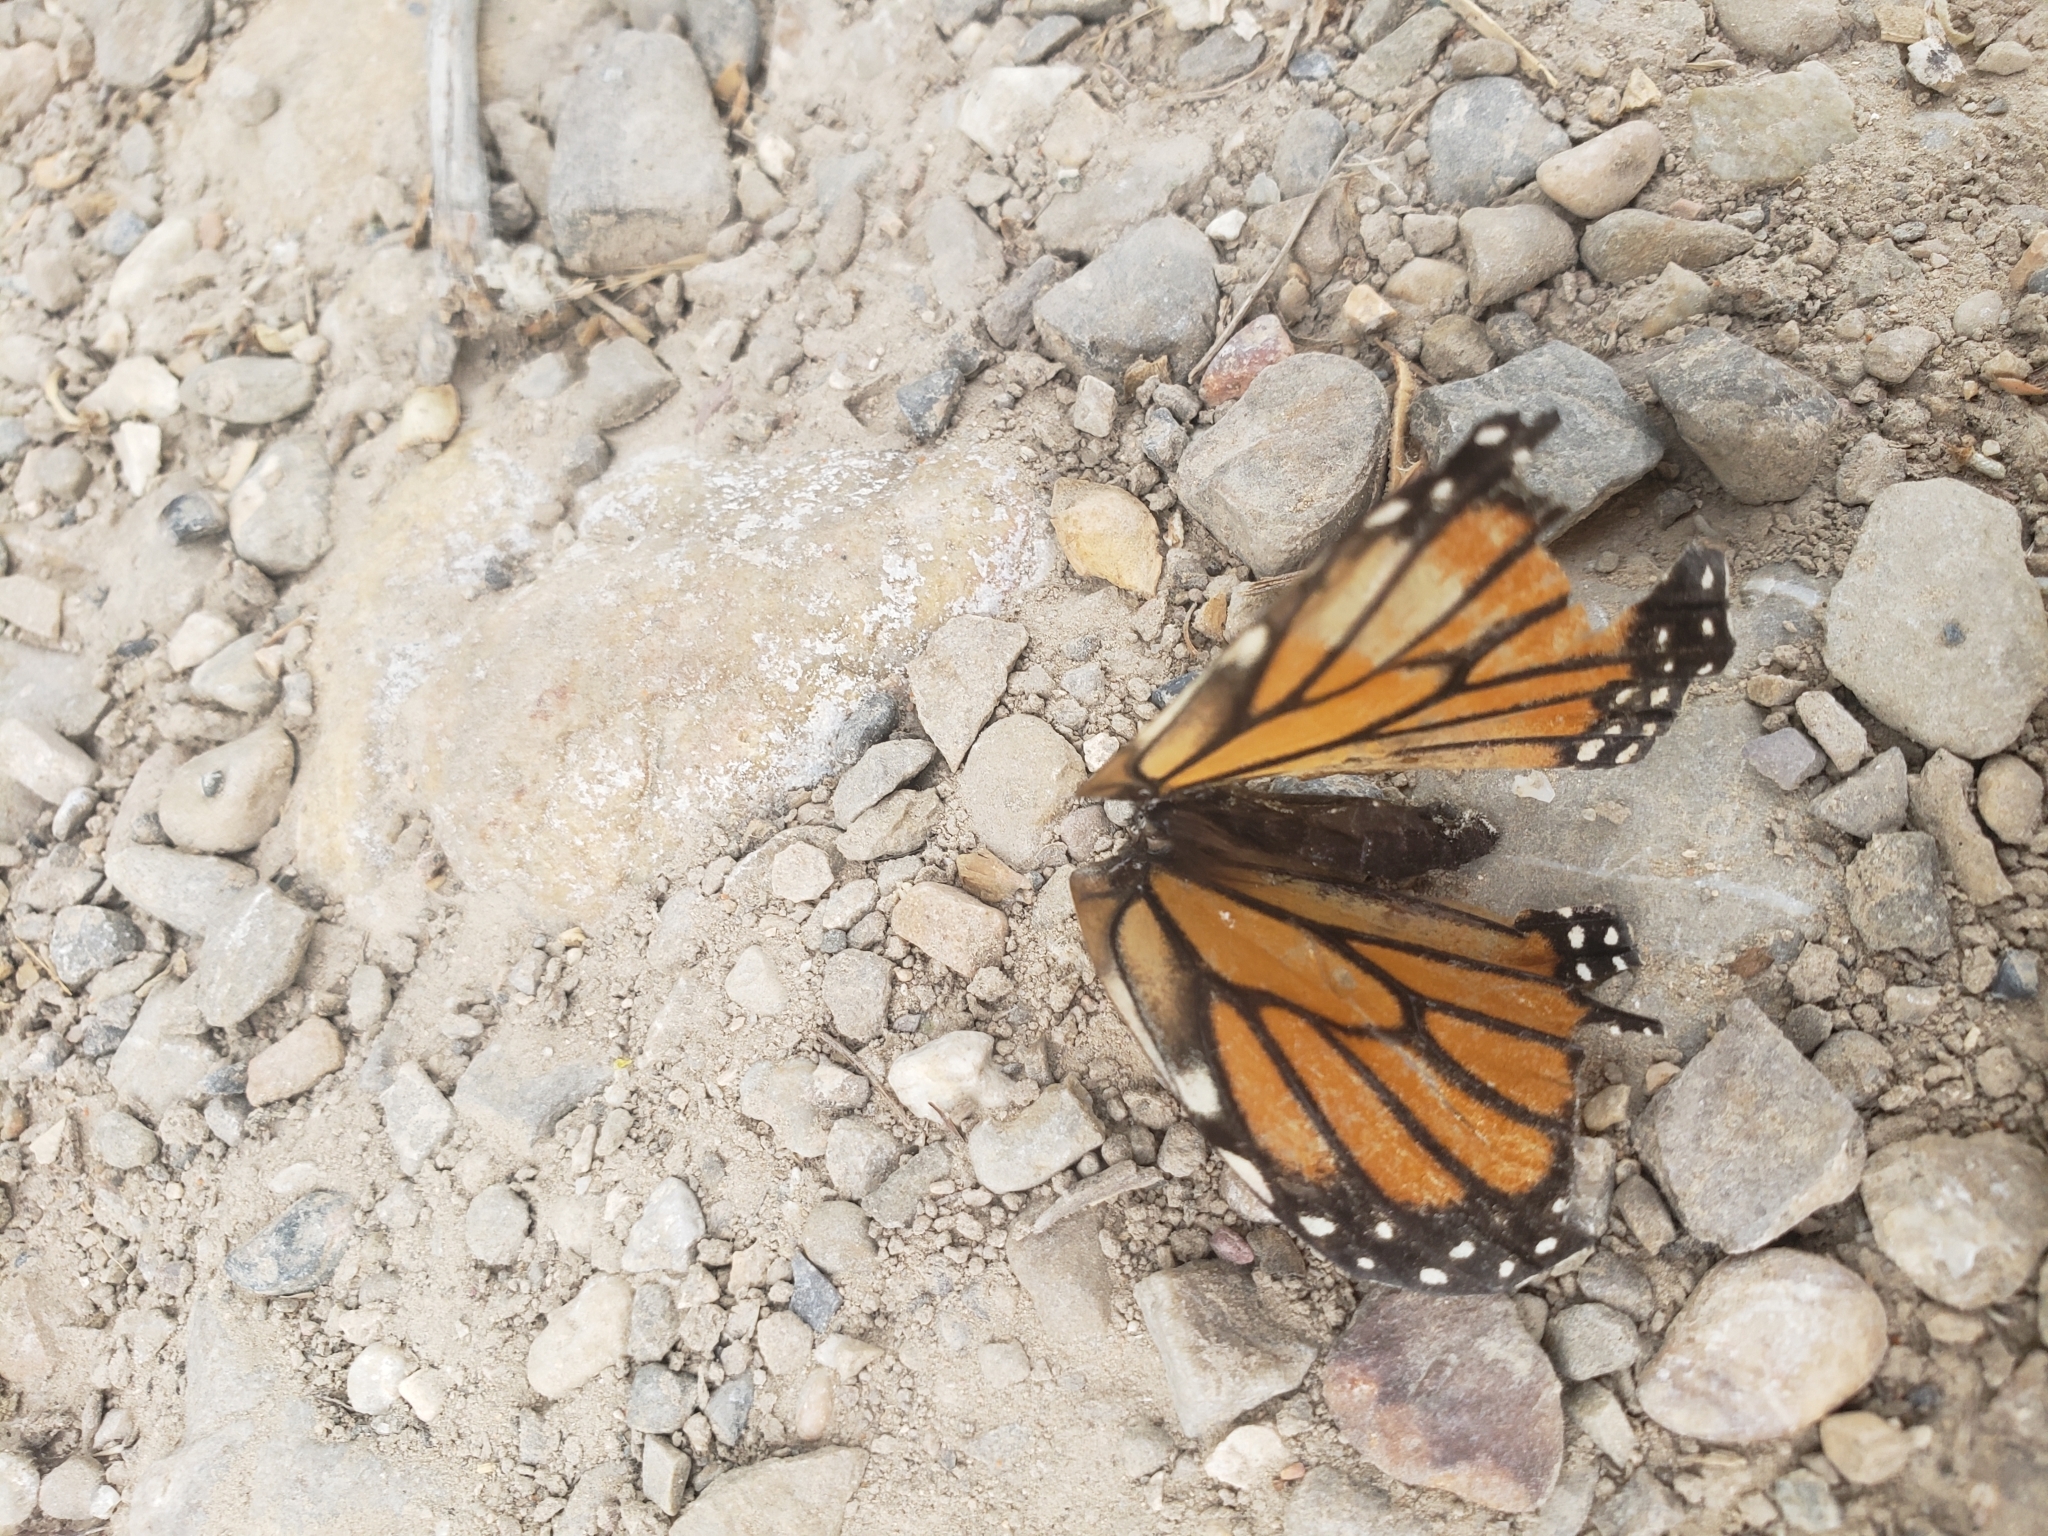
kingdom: Animalia
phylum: Arthropoda
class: Insecta
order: Lepidoptera
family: Nymphalidae
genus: Danaus
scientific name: Danaus plexippus
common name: Monarch
